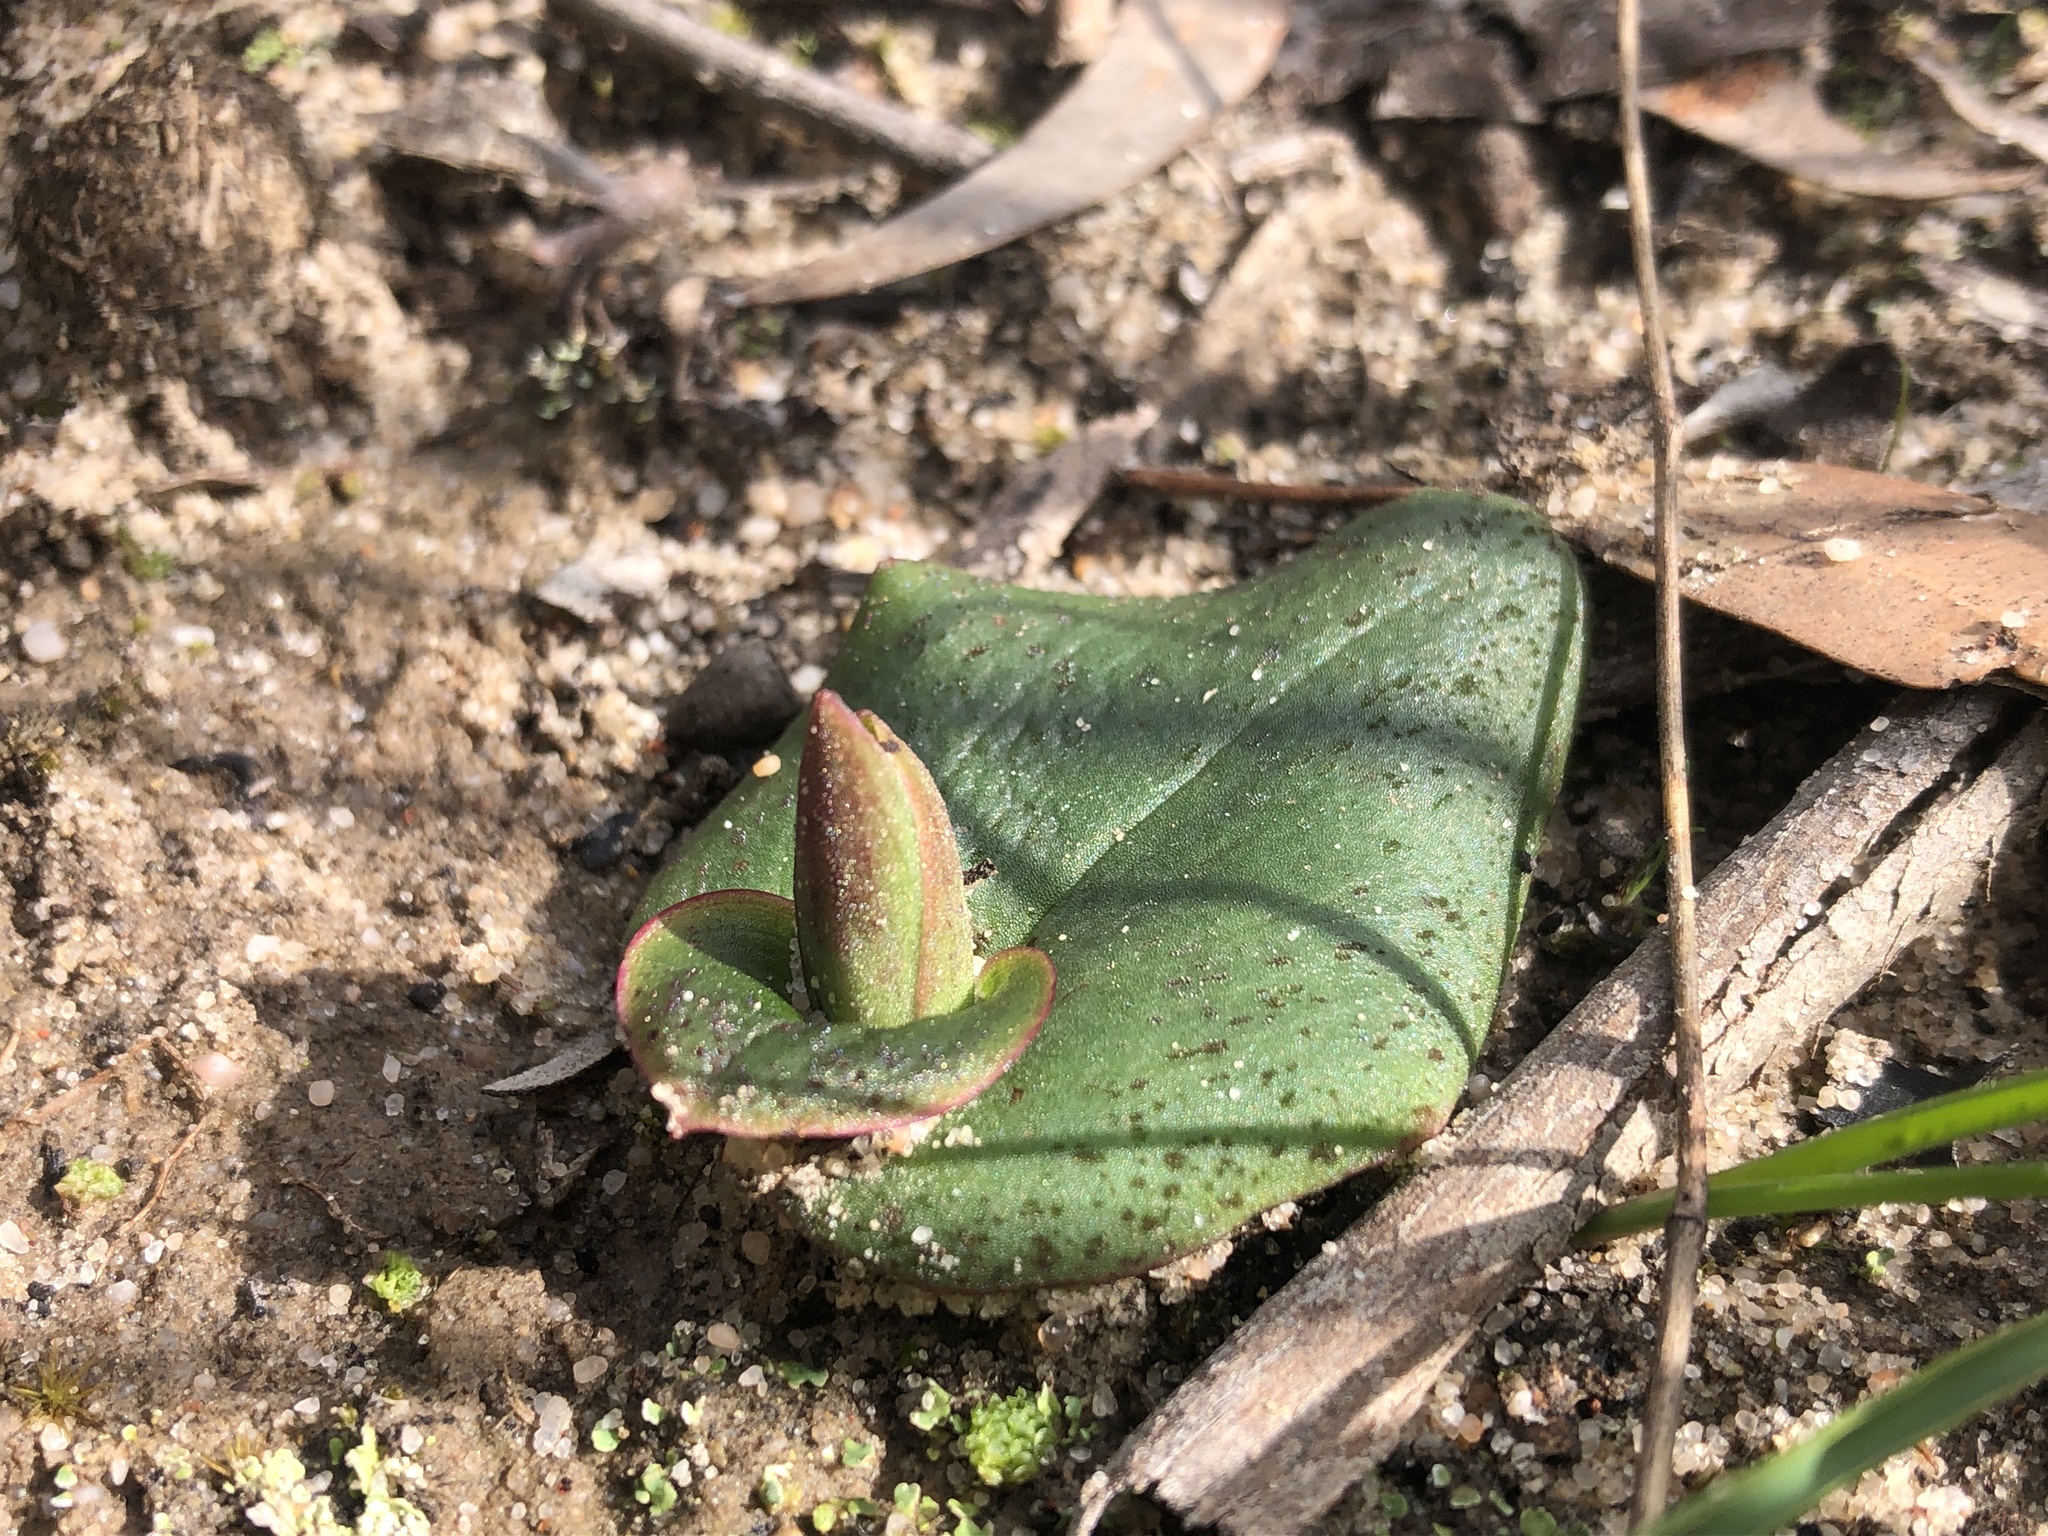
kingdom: Plantae
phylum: Tracheophyta
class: Liliopsida
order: Asparagales
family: Orchidaceae
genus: Pyrorchis
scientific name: Pyrorchis nigricans
